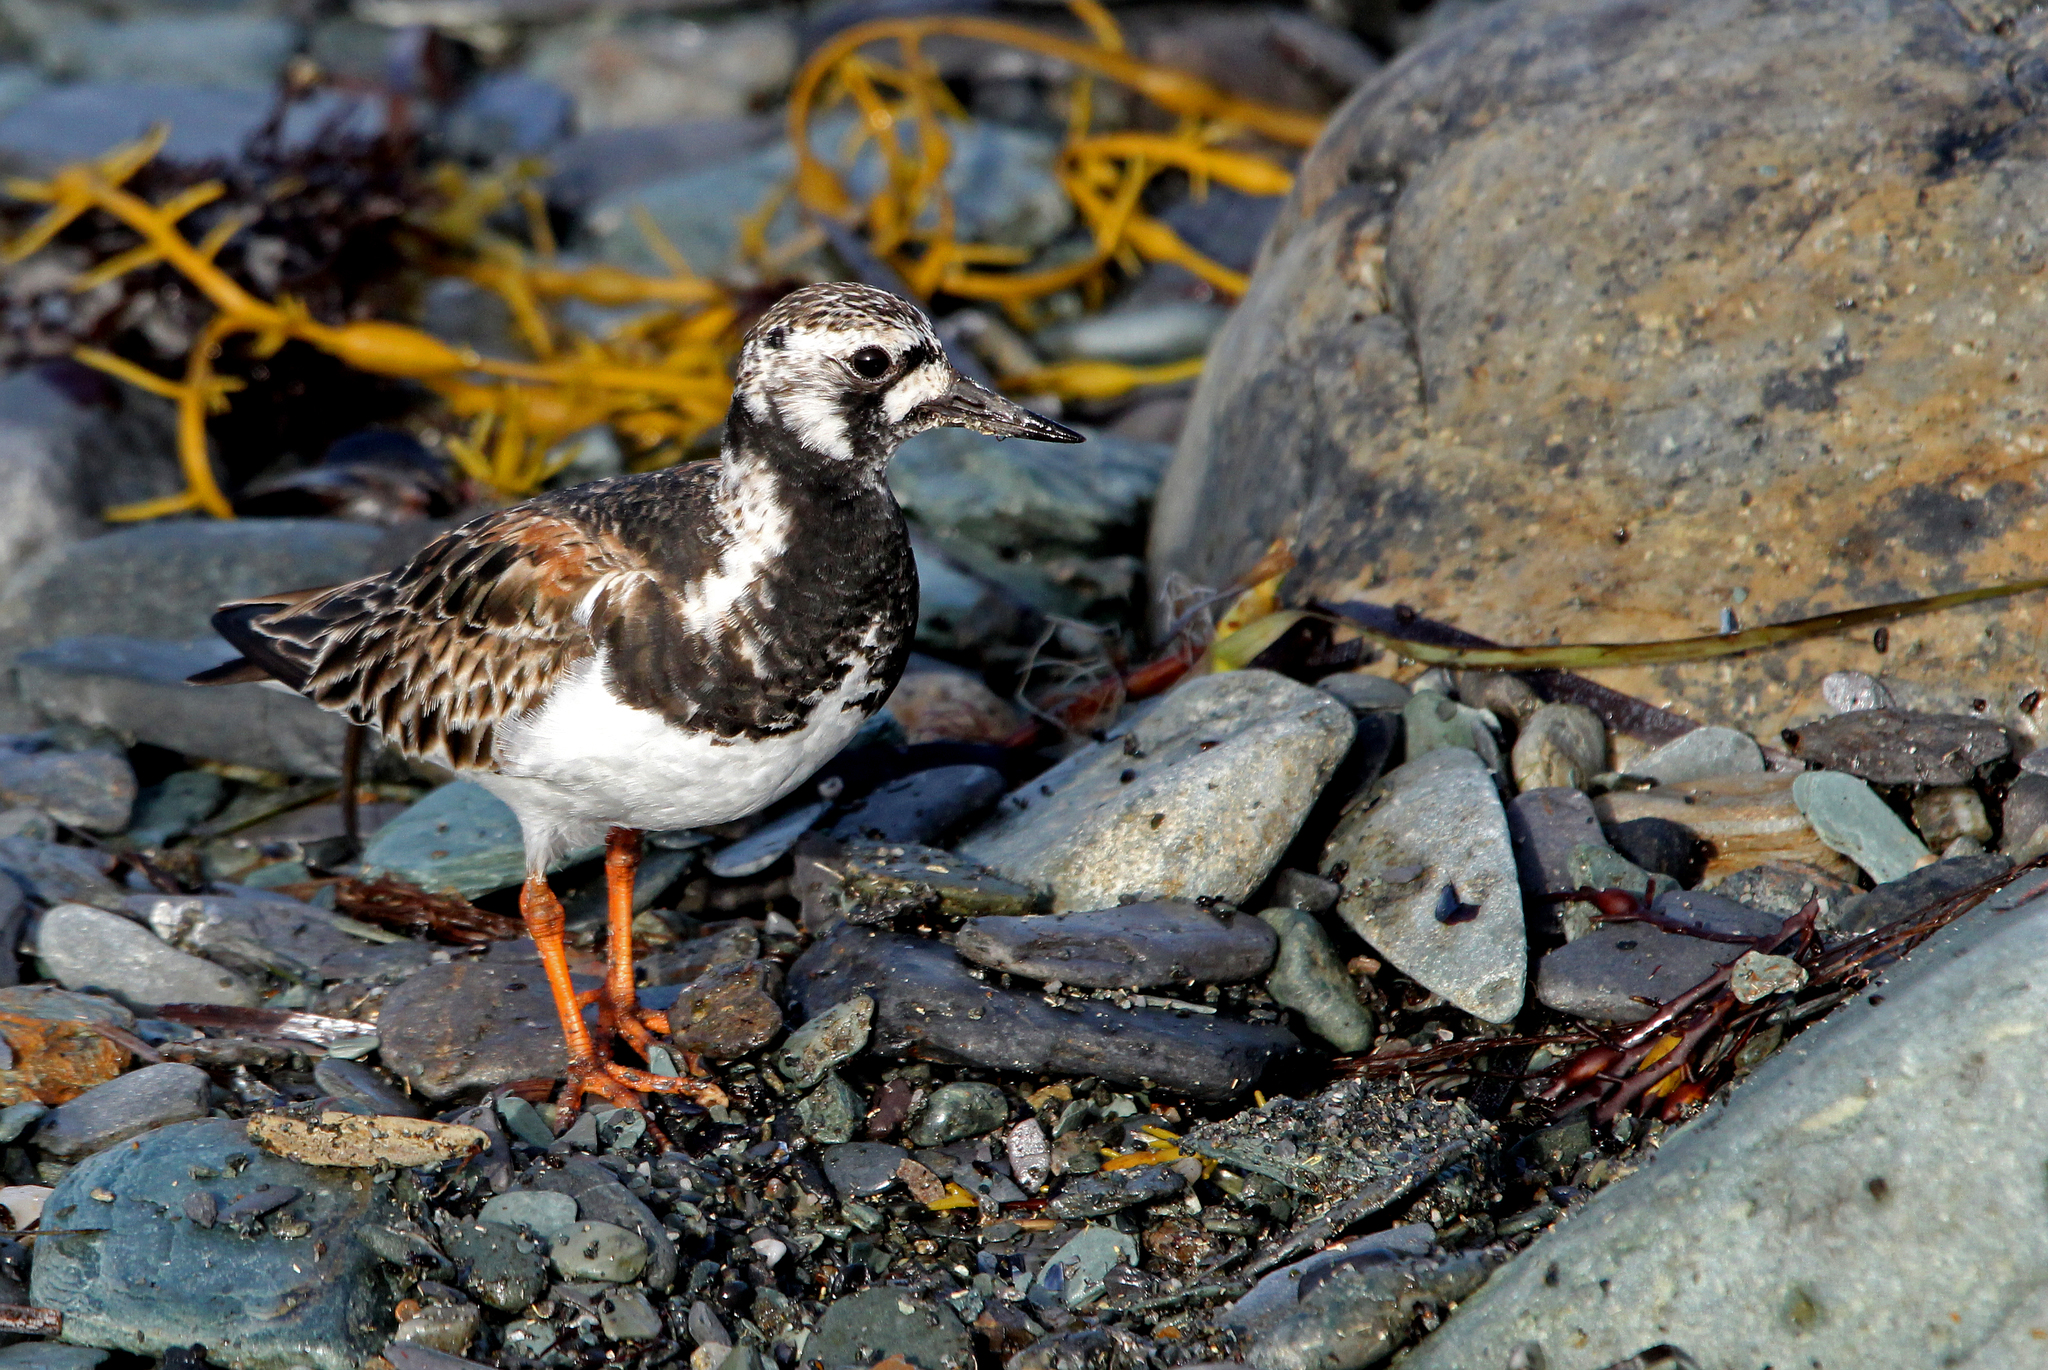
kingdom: Animalia
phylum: Chordata
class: Aves
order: Charadriiformes
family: Scolopacidae
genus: Arenaria
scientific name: Arenaria interpres
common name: Ruddy turnstone
